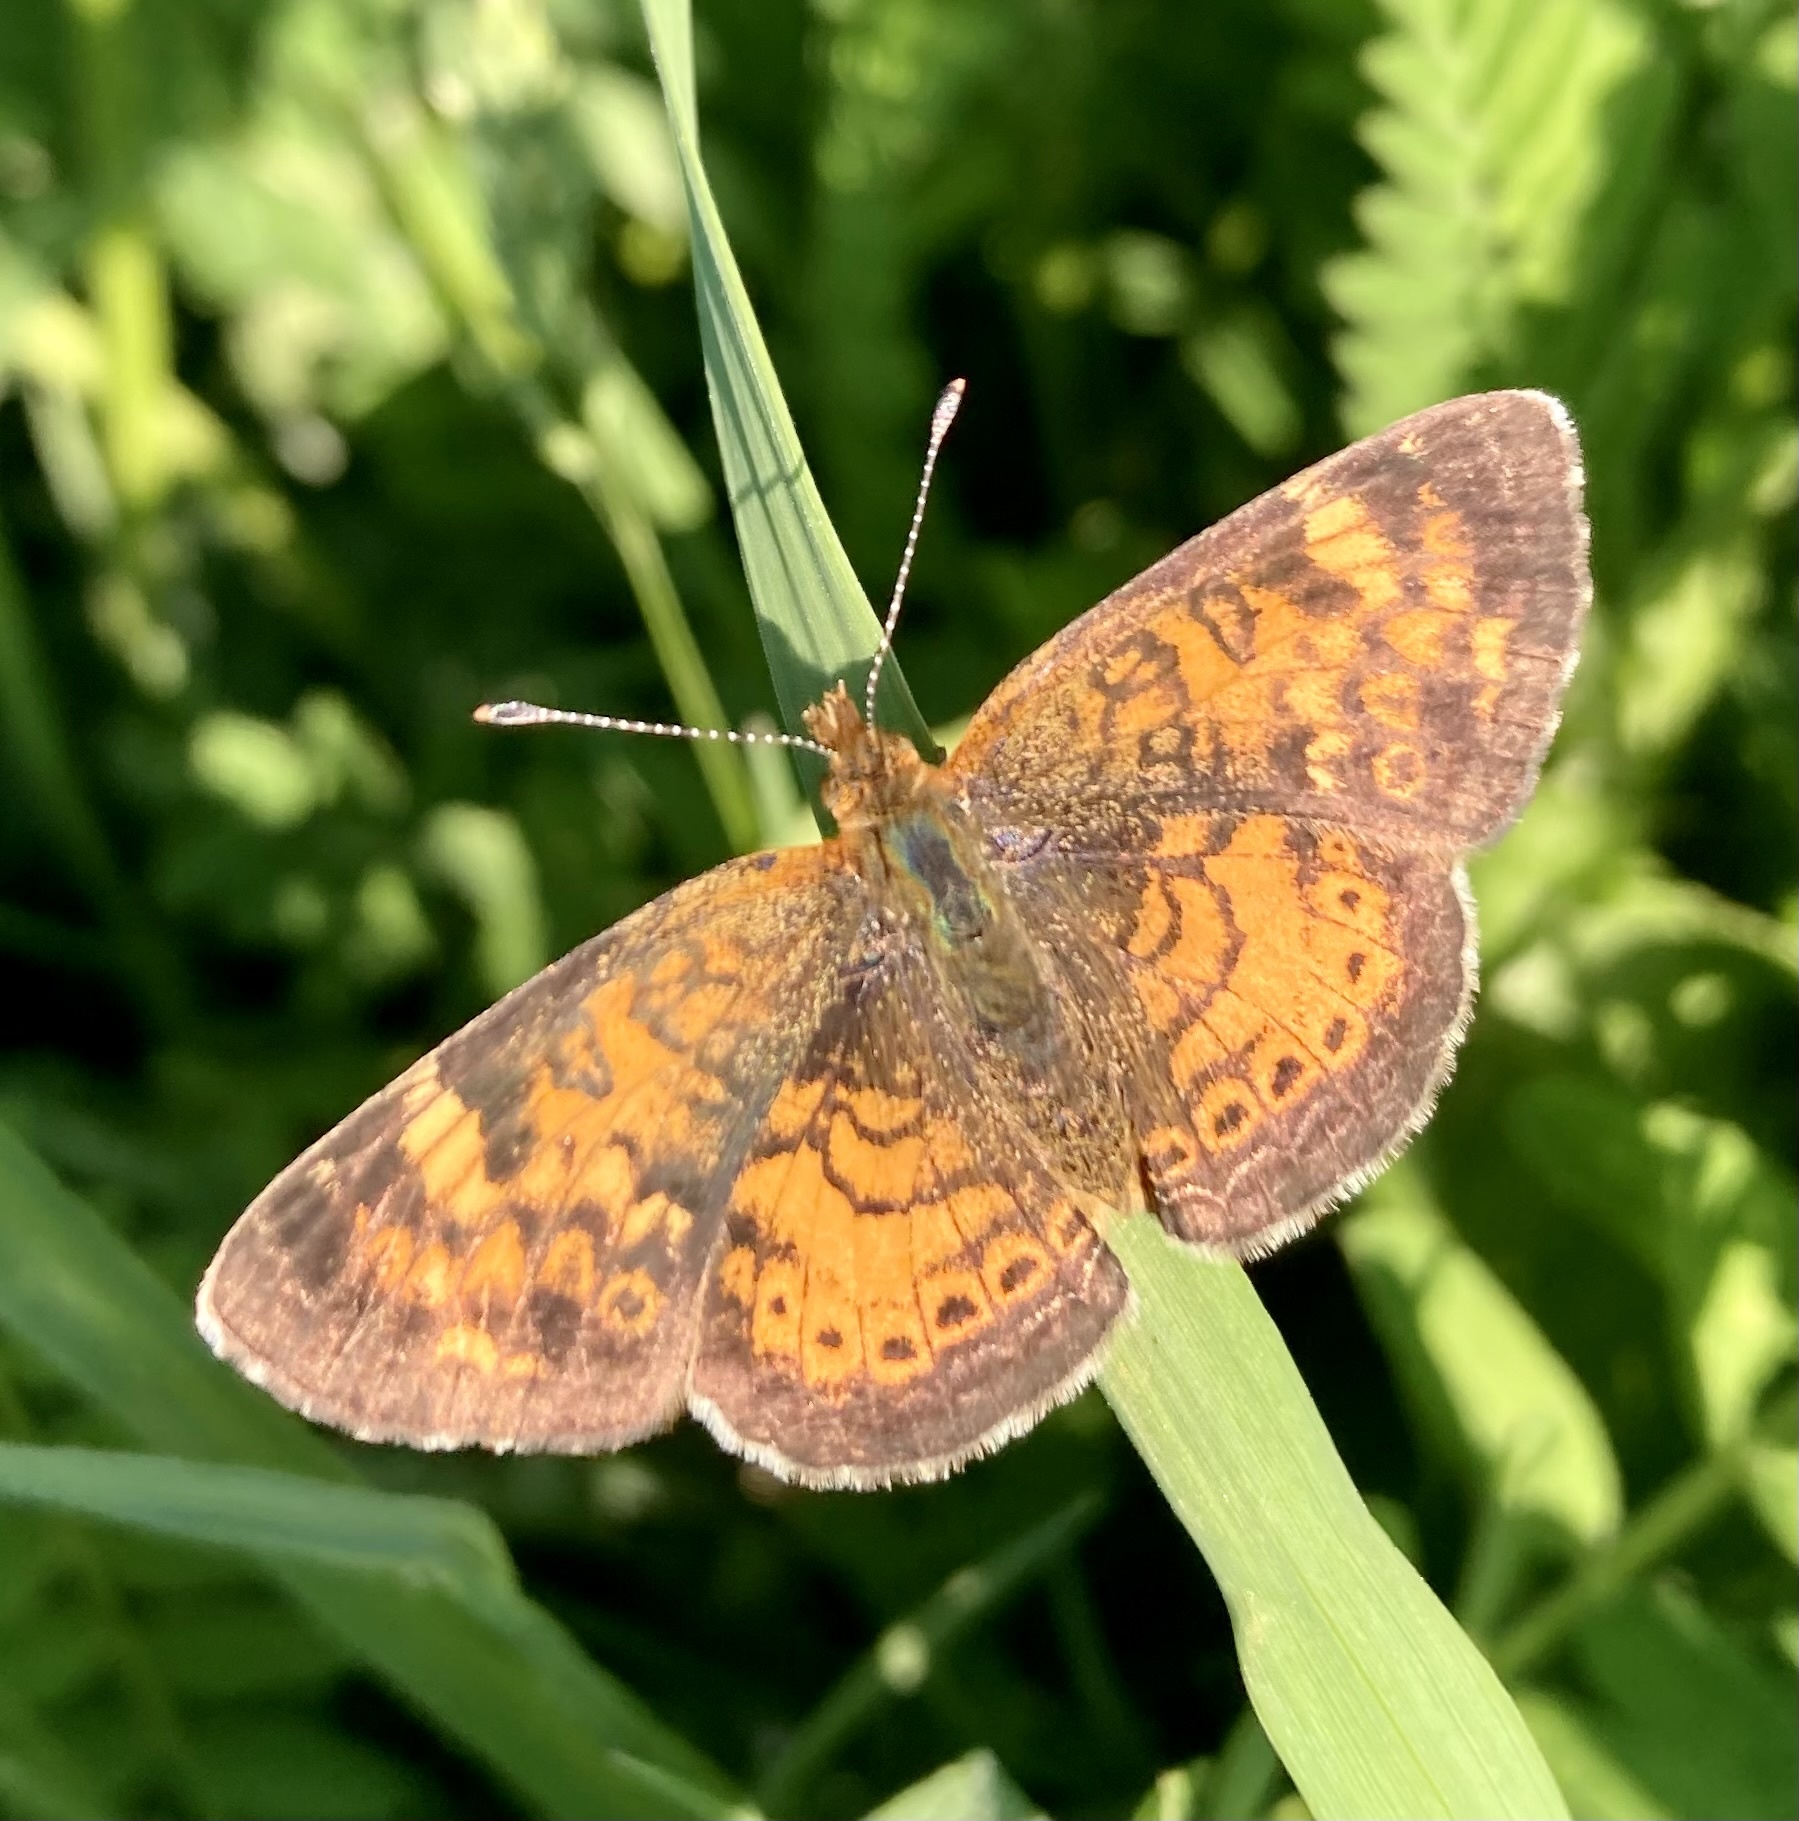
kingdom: Animalia
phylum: Arthropoda
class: Insecta
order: Lepidoptera
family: Nymphalidae
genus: Phyciodes
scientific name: Phyciodes tharos
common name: Pearl crescent
